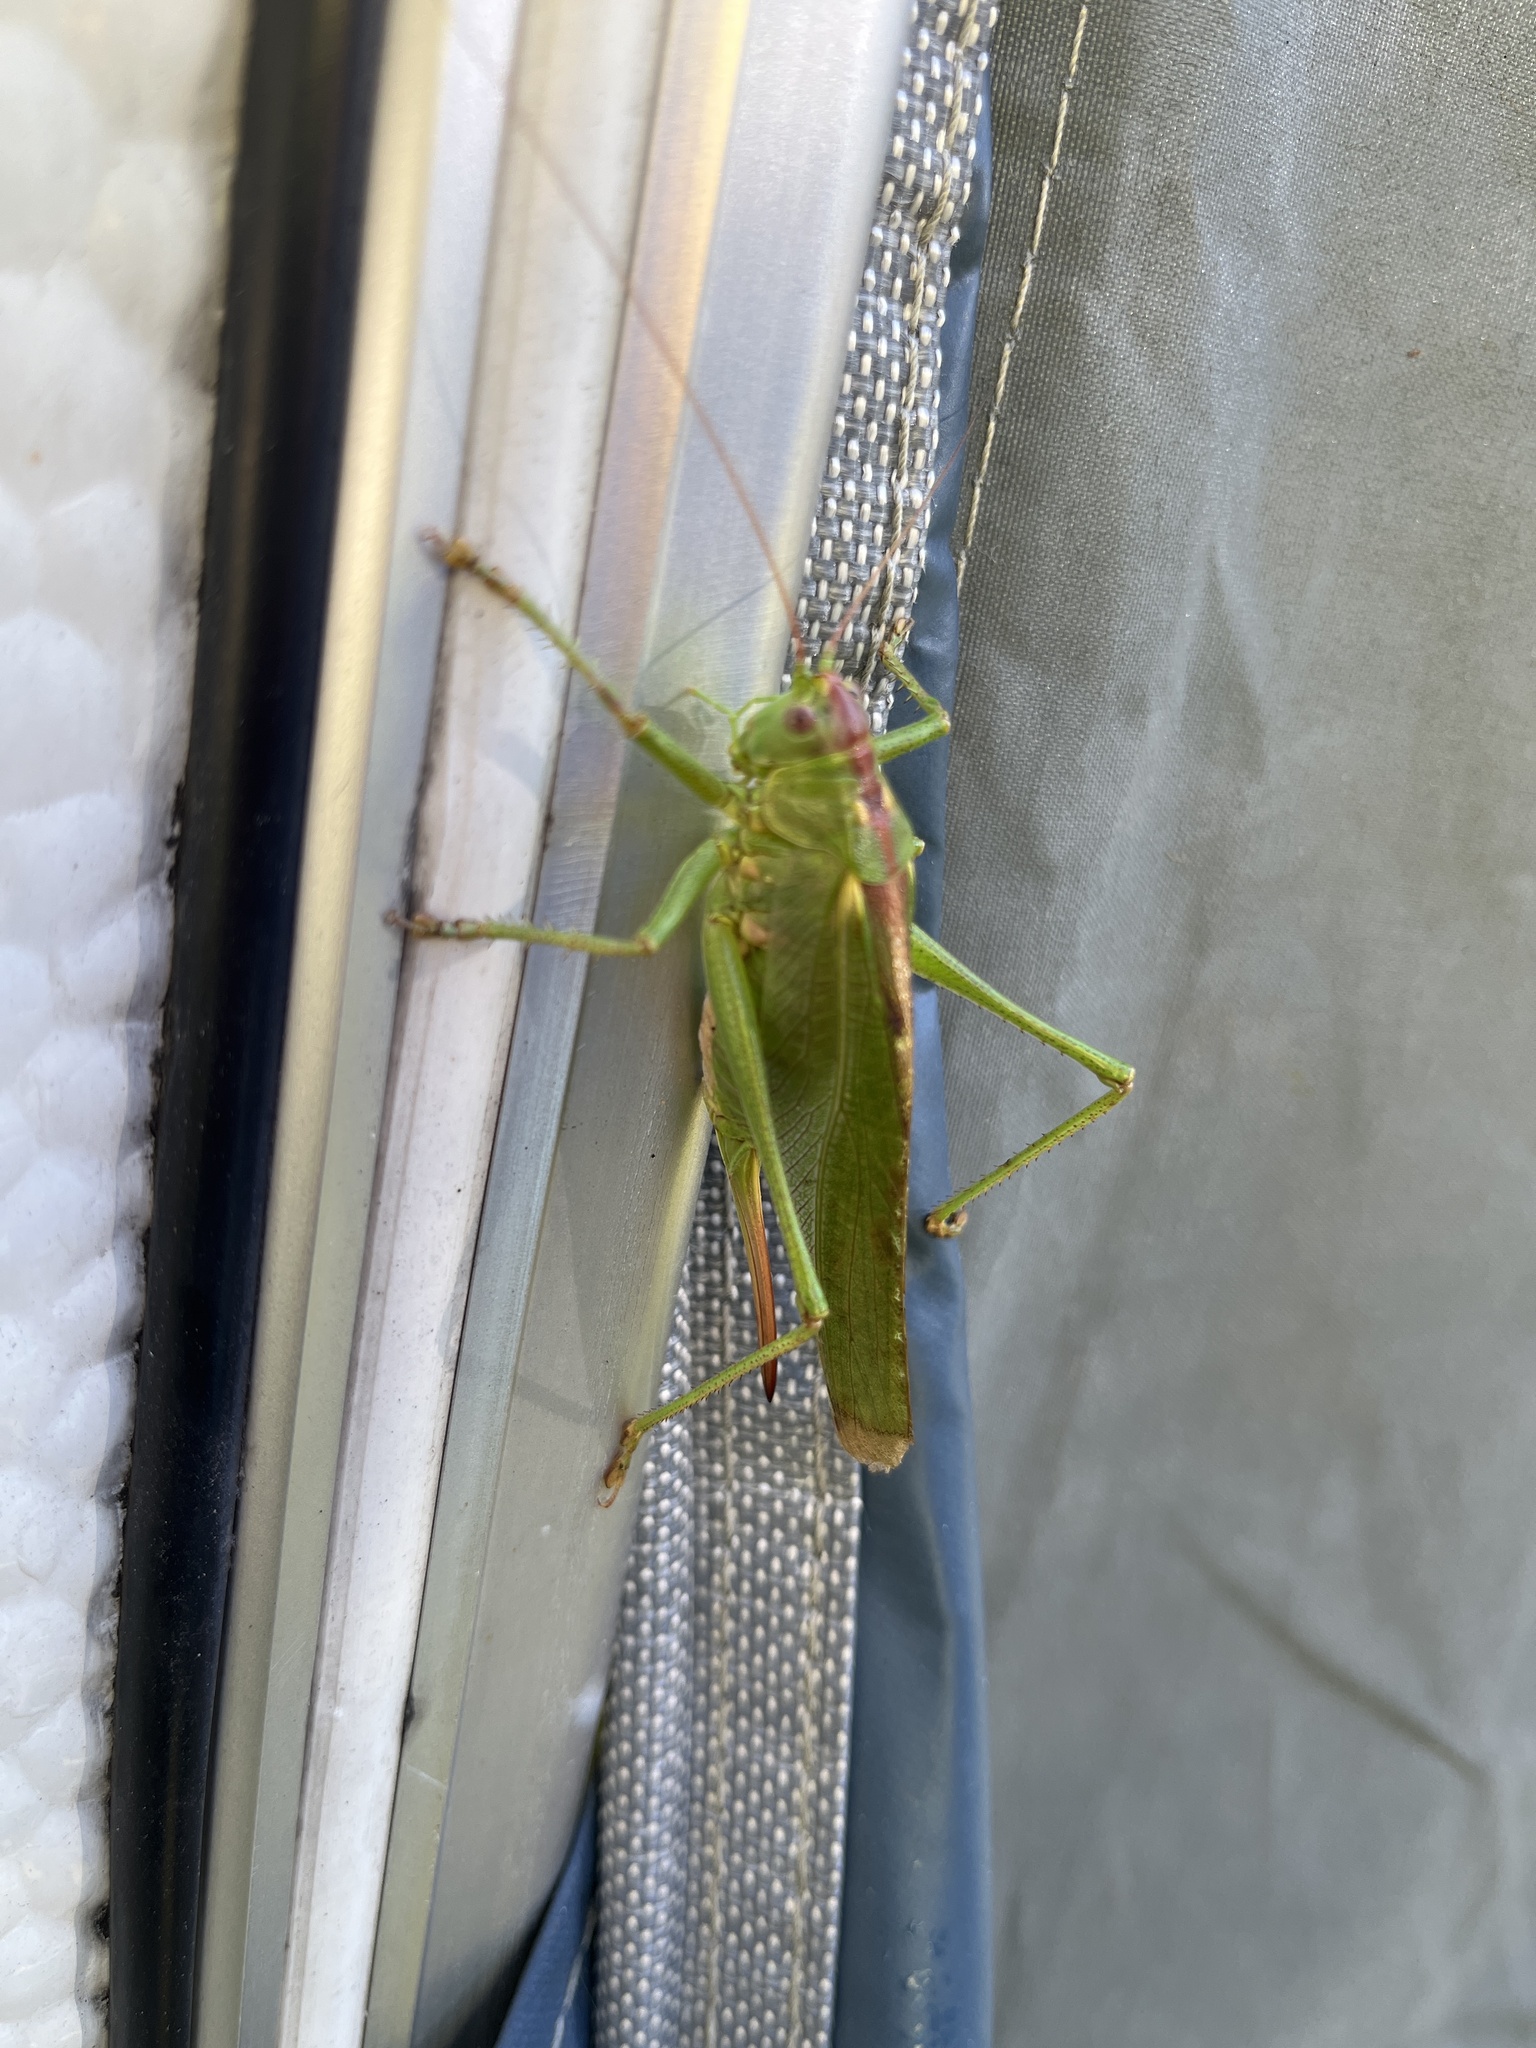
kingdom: Animalia
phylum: Arthropoda
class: Insecta
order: Orthoptera
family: Tettigoniidae
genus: Tettigonia
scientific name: Tettigonia viridissima
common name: Great green bush-cricket
